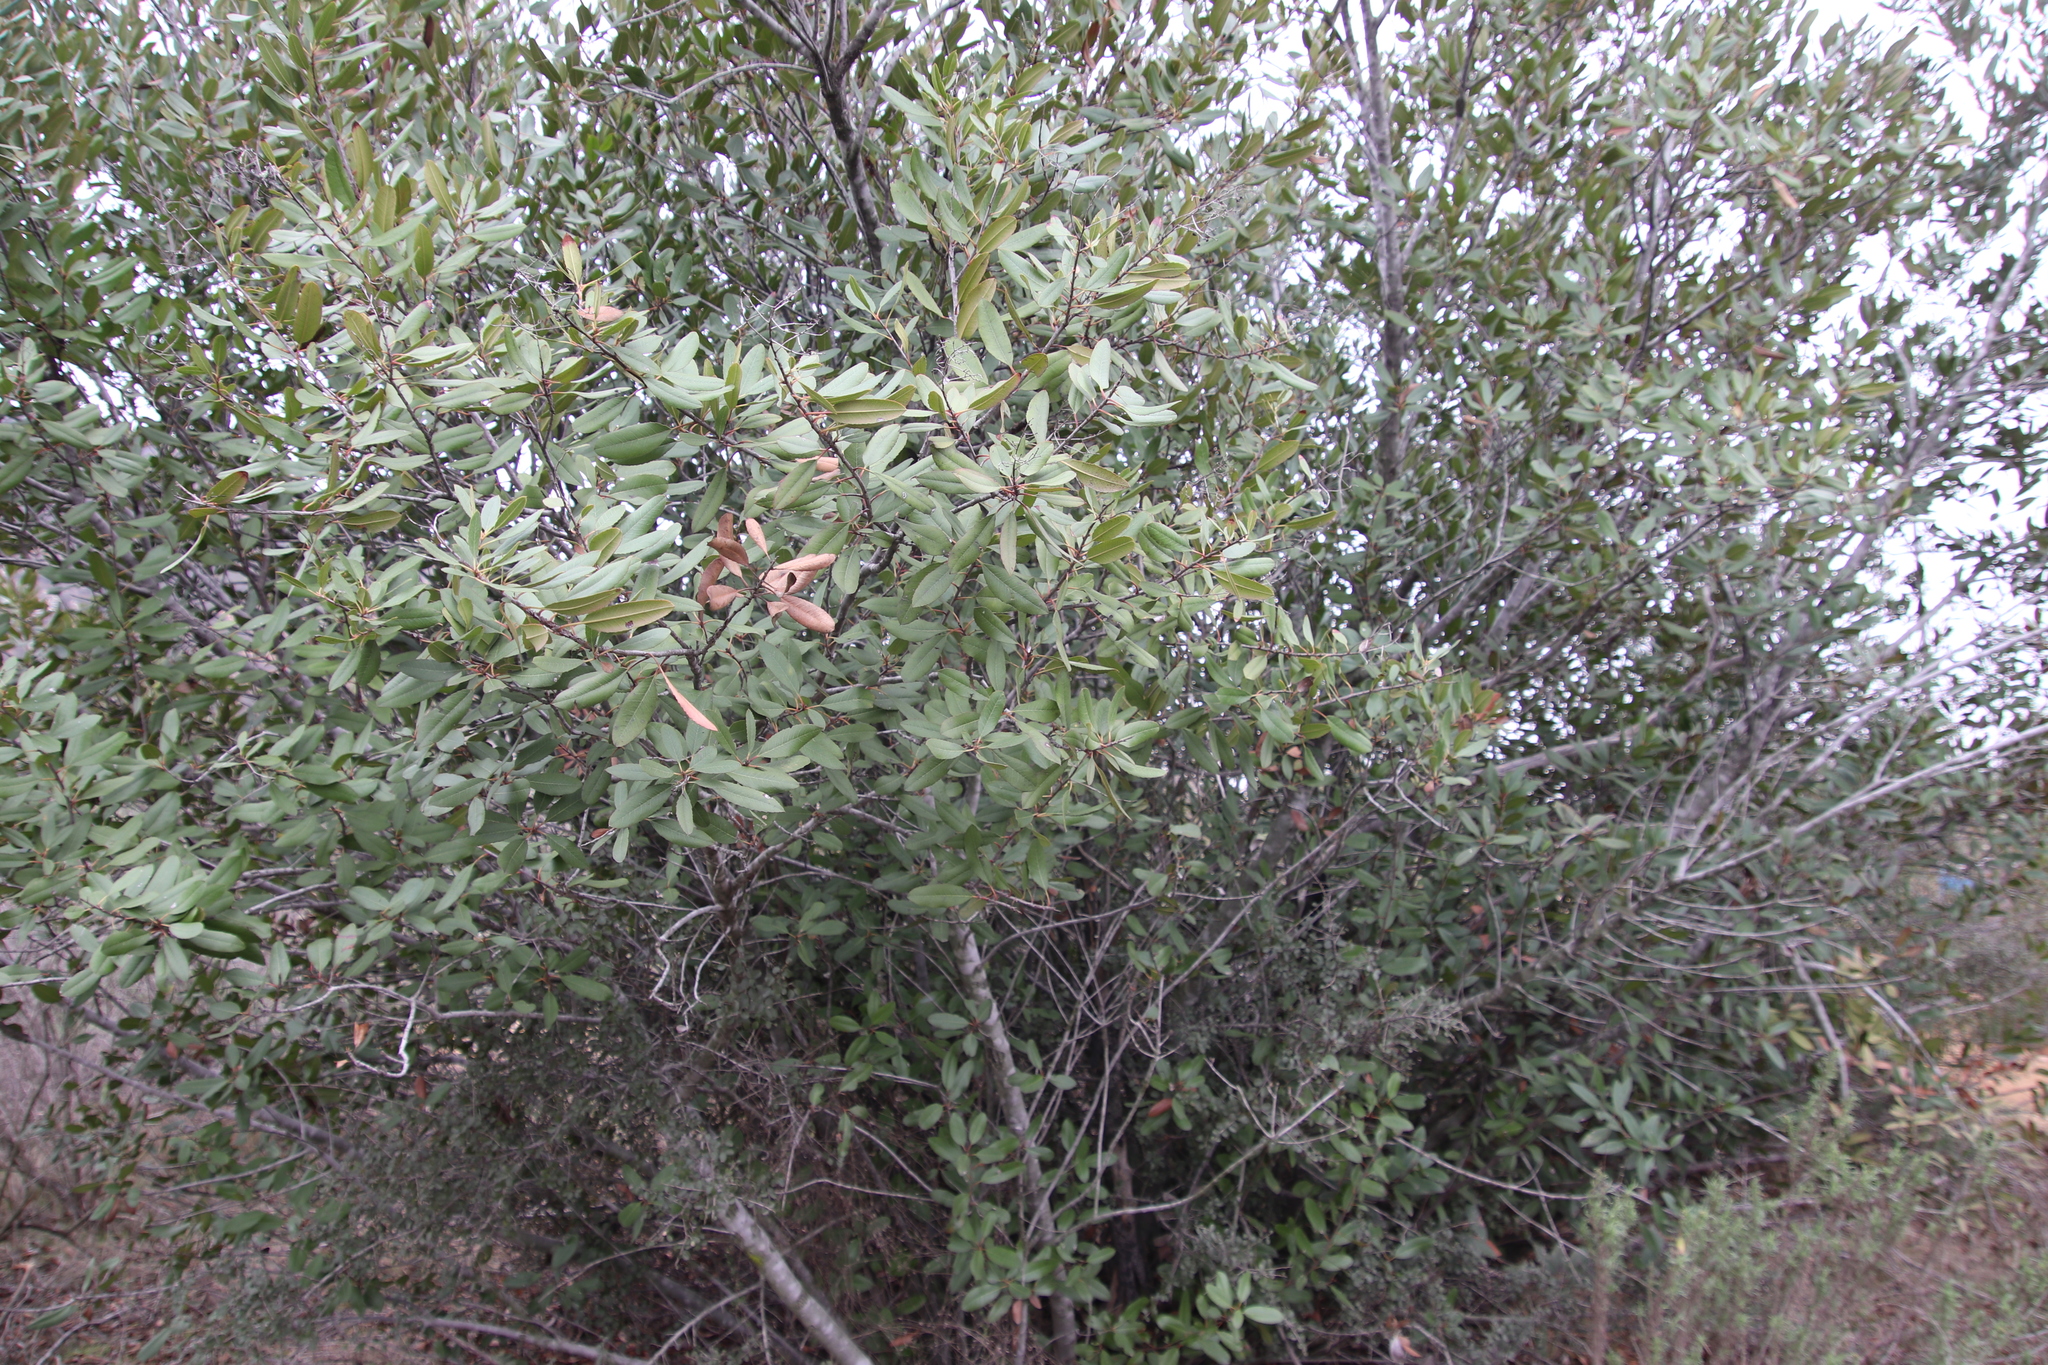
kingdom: Plantae
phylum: Tracheophyta
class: Magnoliopsida
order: Rosales
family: Rosaceae
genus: Heteromeles
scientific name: Heteromeles arbutifolia
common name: California-holly
